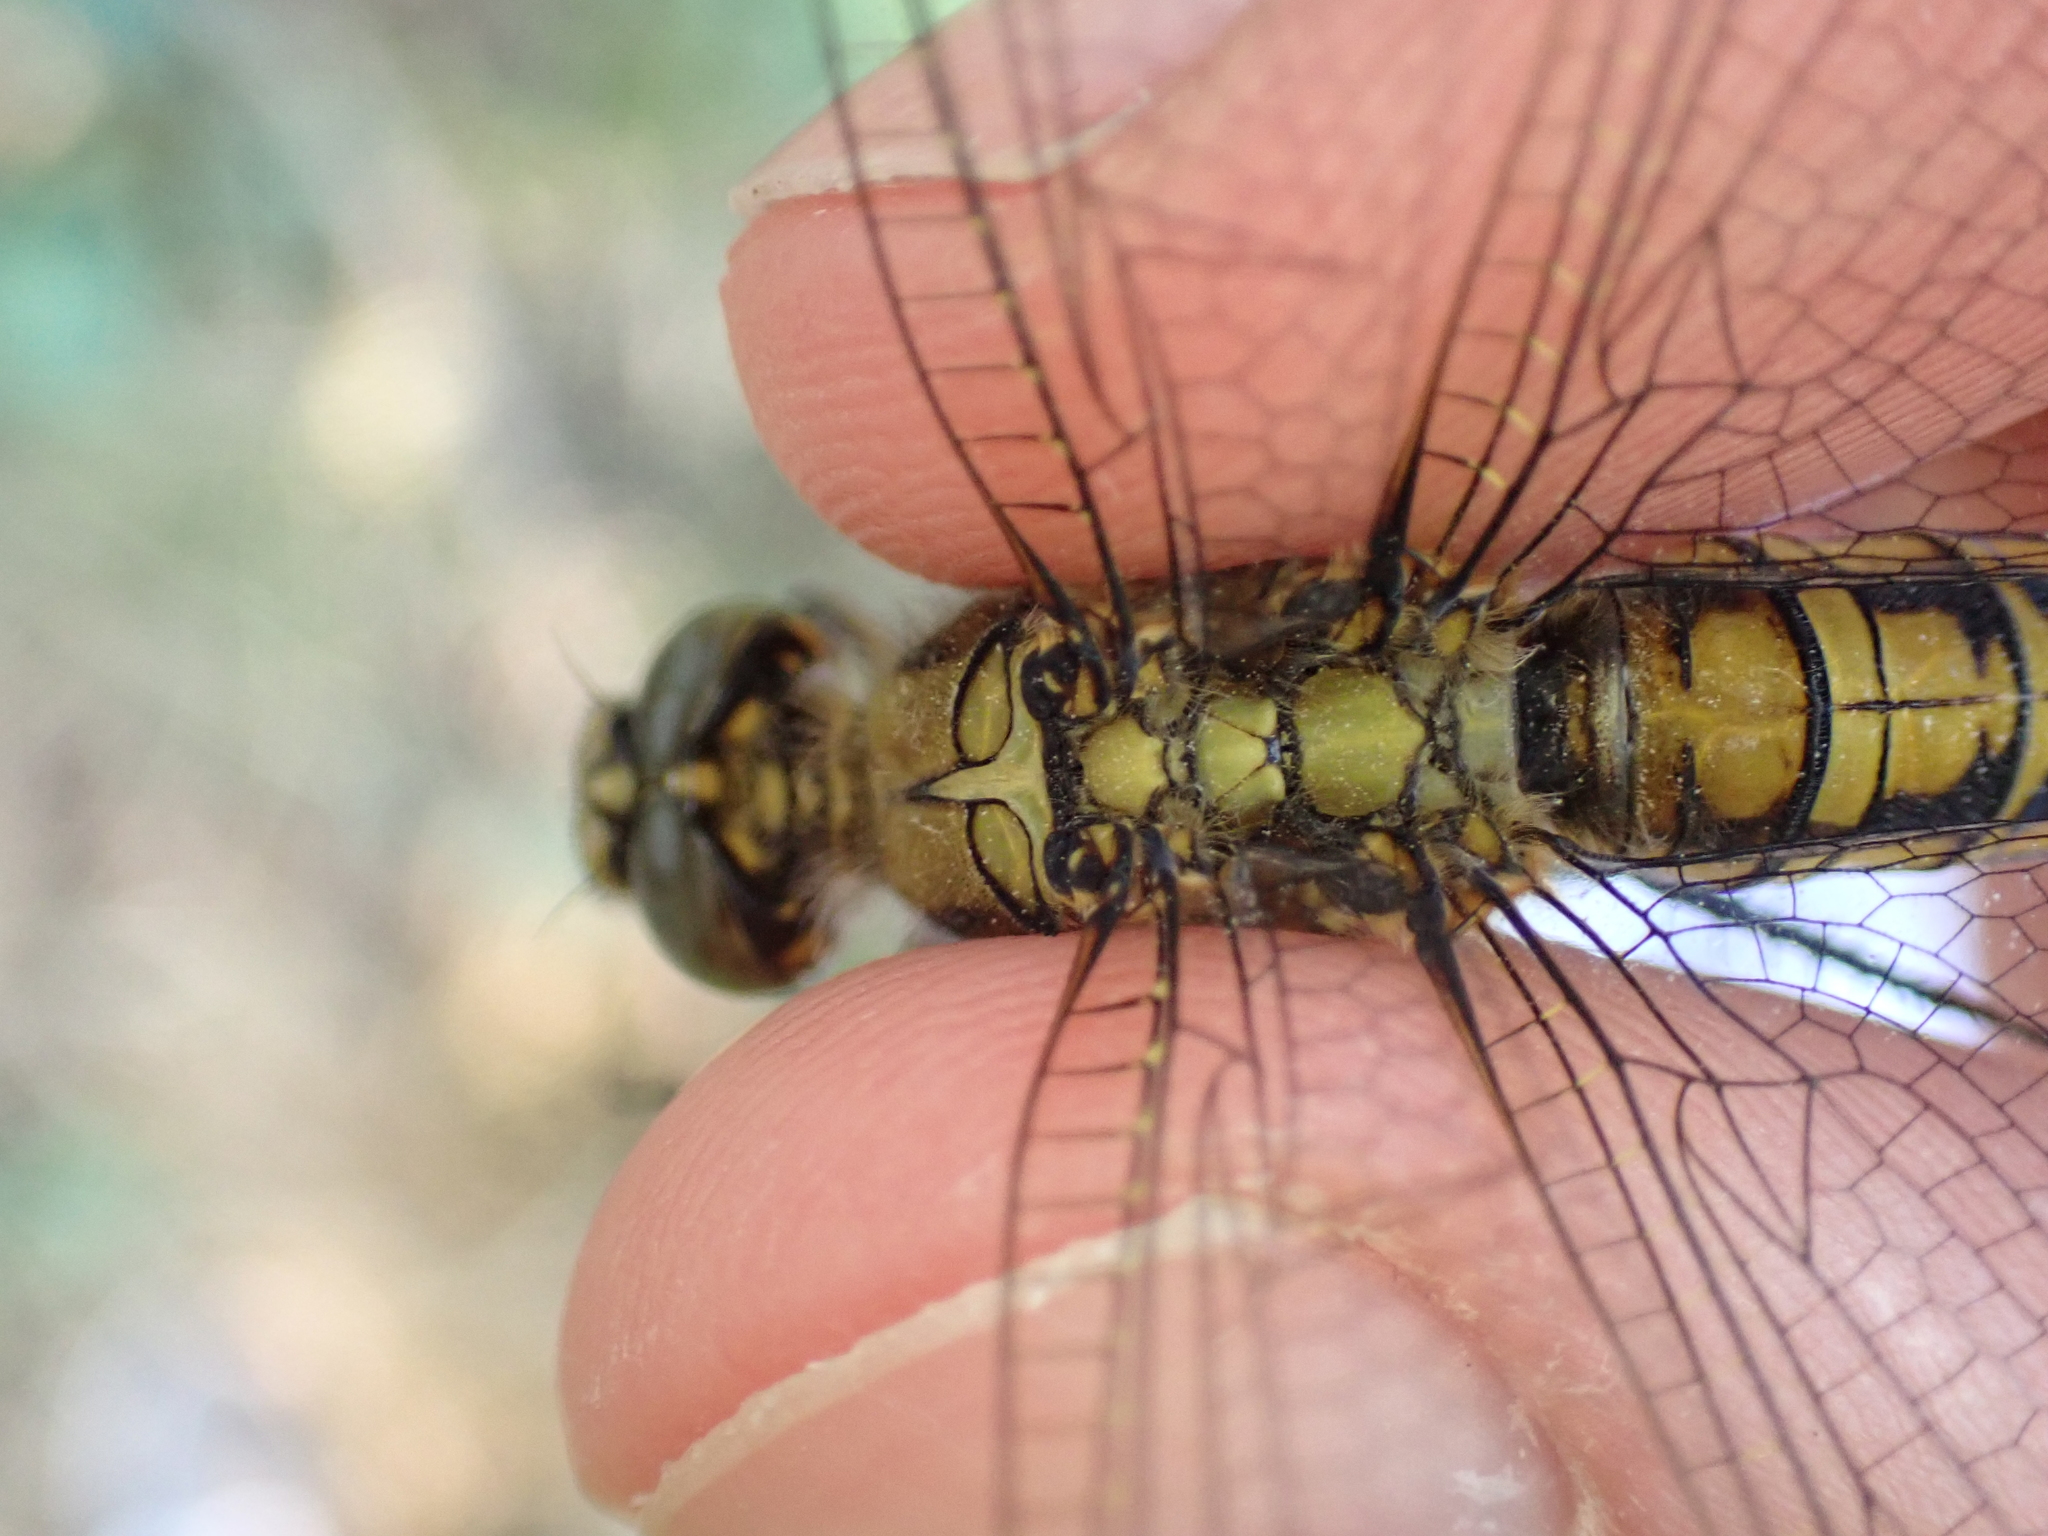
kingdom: Animalia
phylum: Arthropoda
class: Insecta
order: Odonata
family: Libellulidae
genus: Orthetrum
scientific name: Orthetrum cancellatum
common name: Black-tailed skimmer
